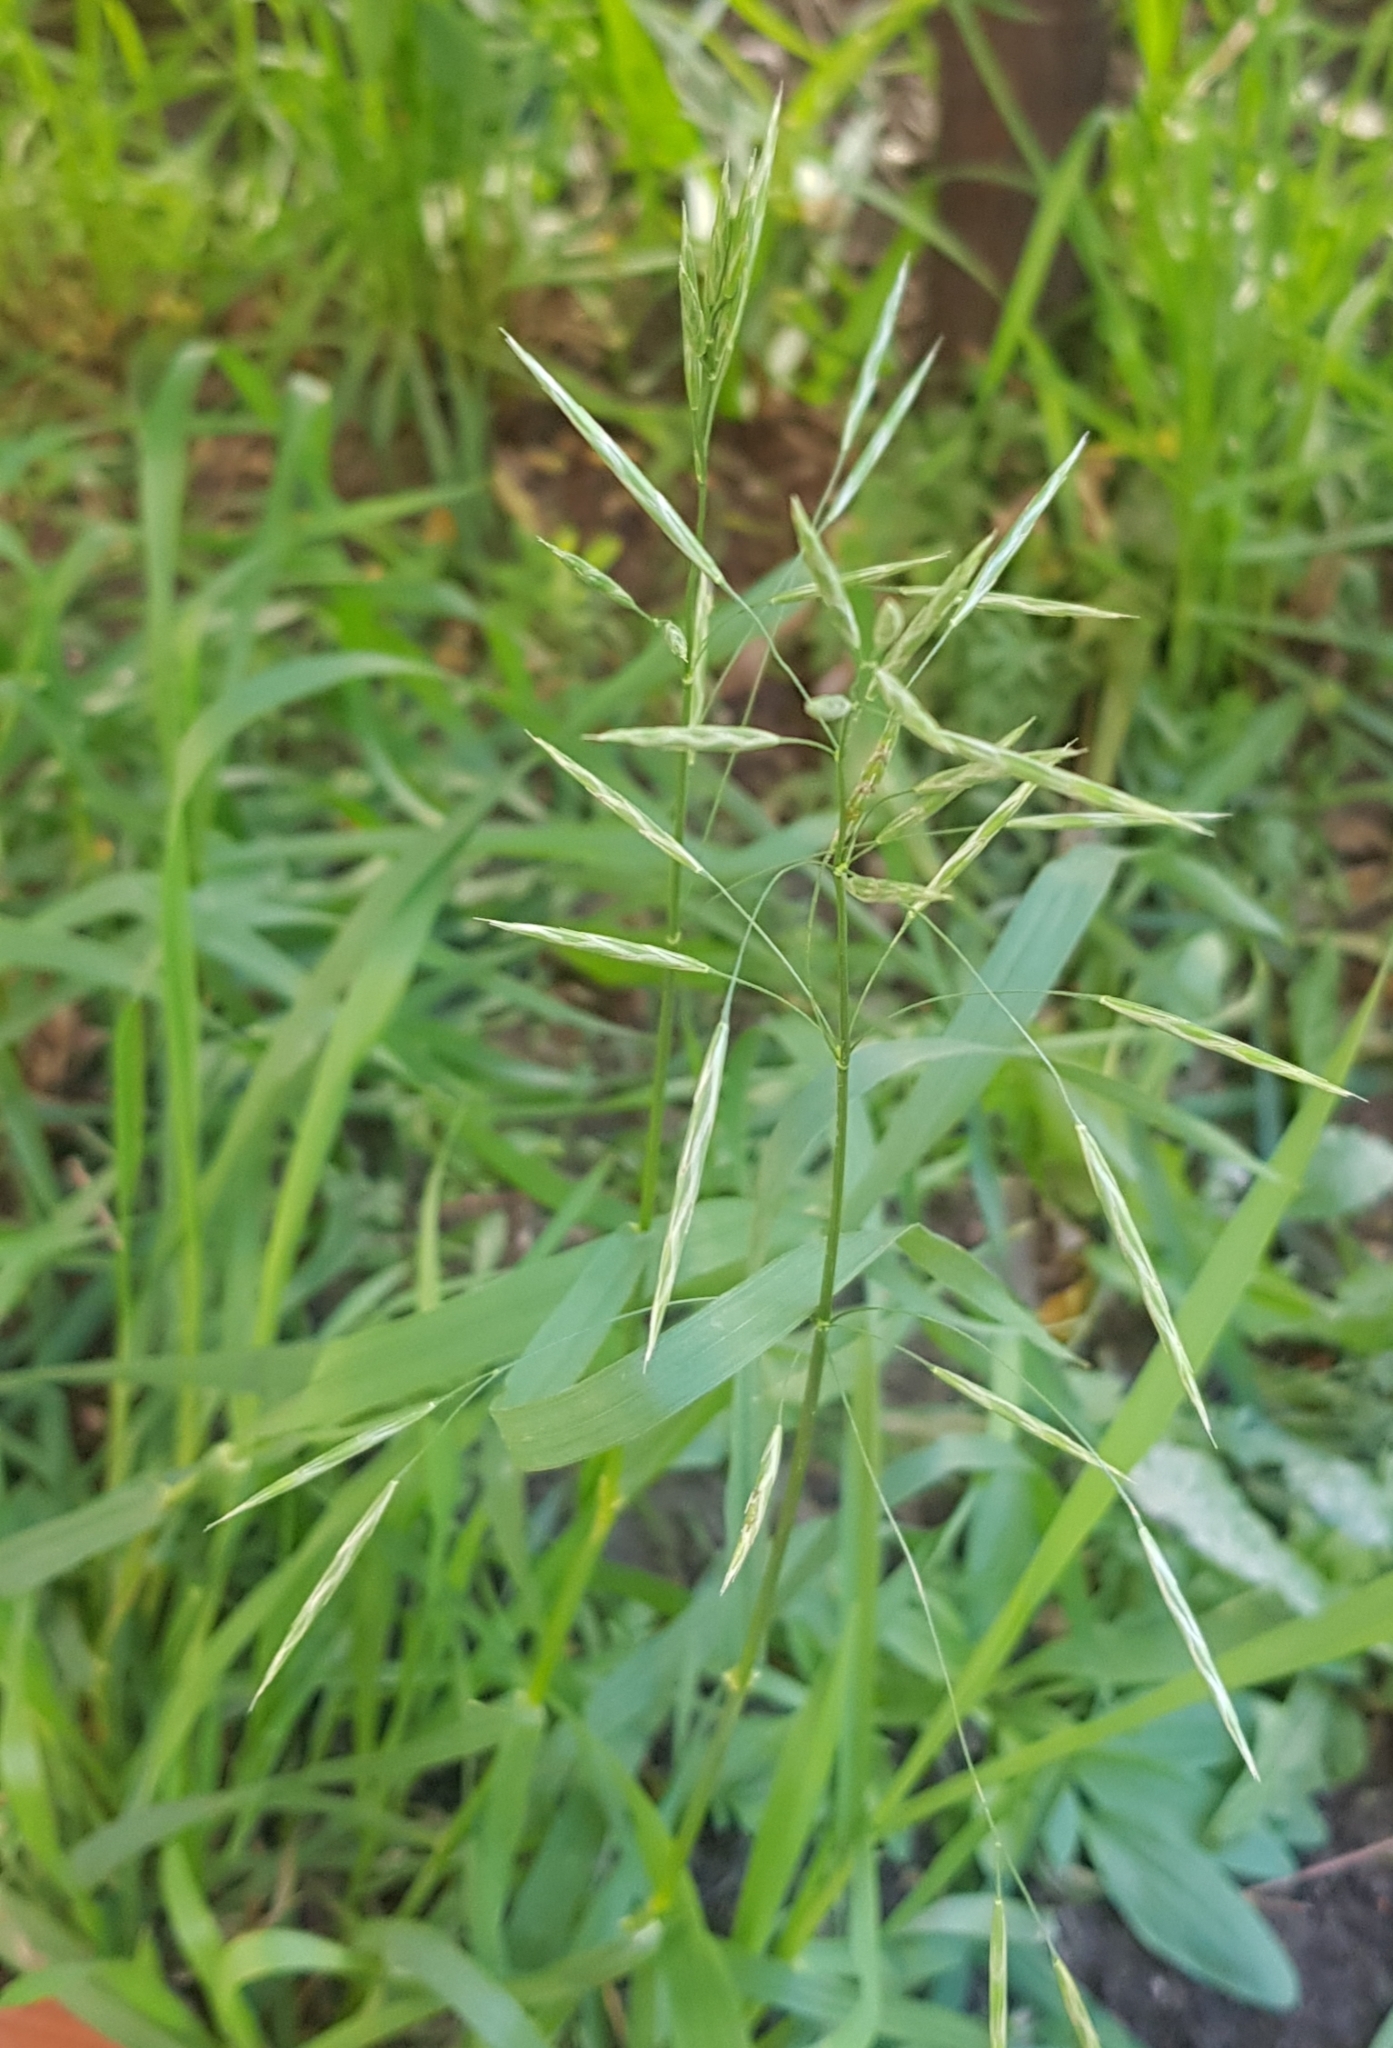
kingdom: Plantae
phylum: Tracheophyta
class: Liliopsida
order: Poales
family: Poaceae
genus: Bromus
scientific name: Bromus inermis
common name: Smooth brome
